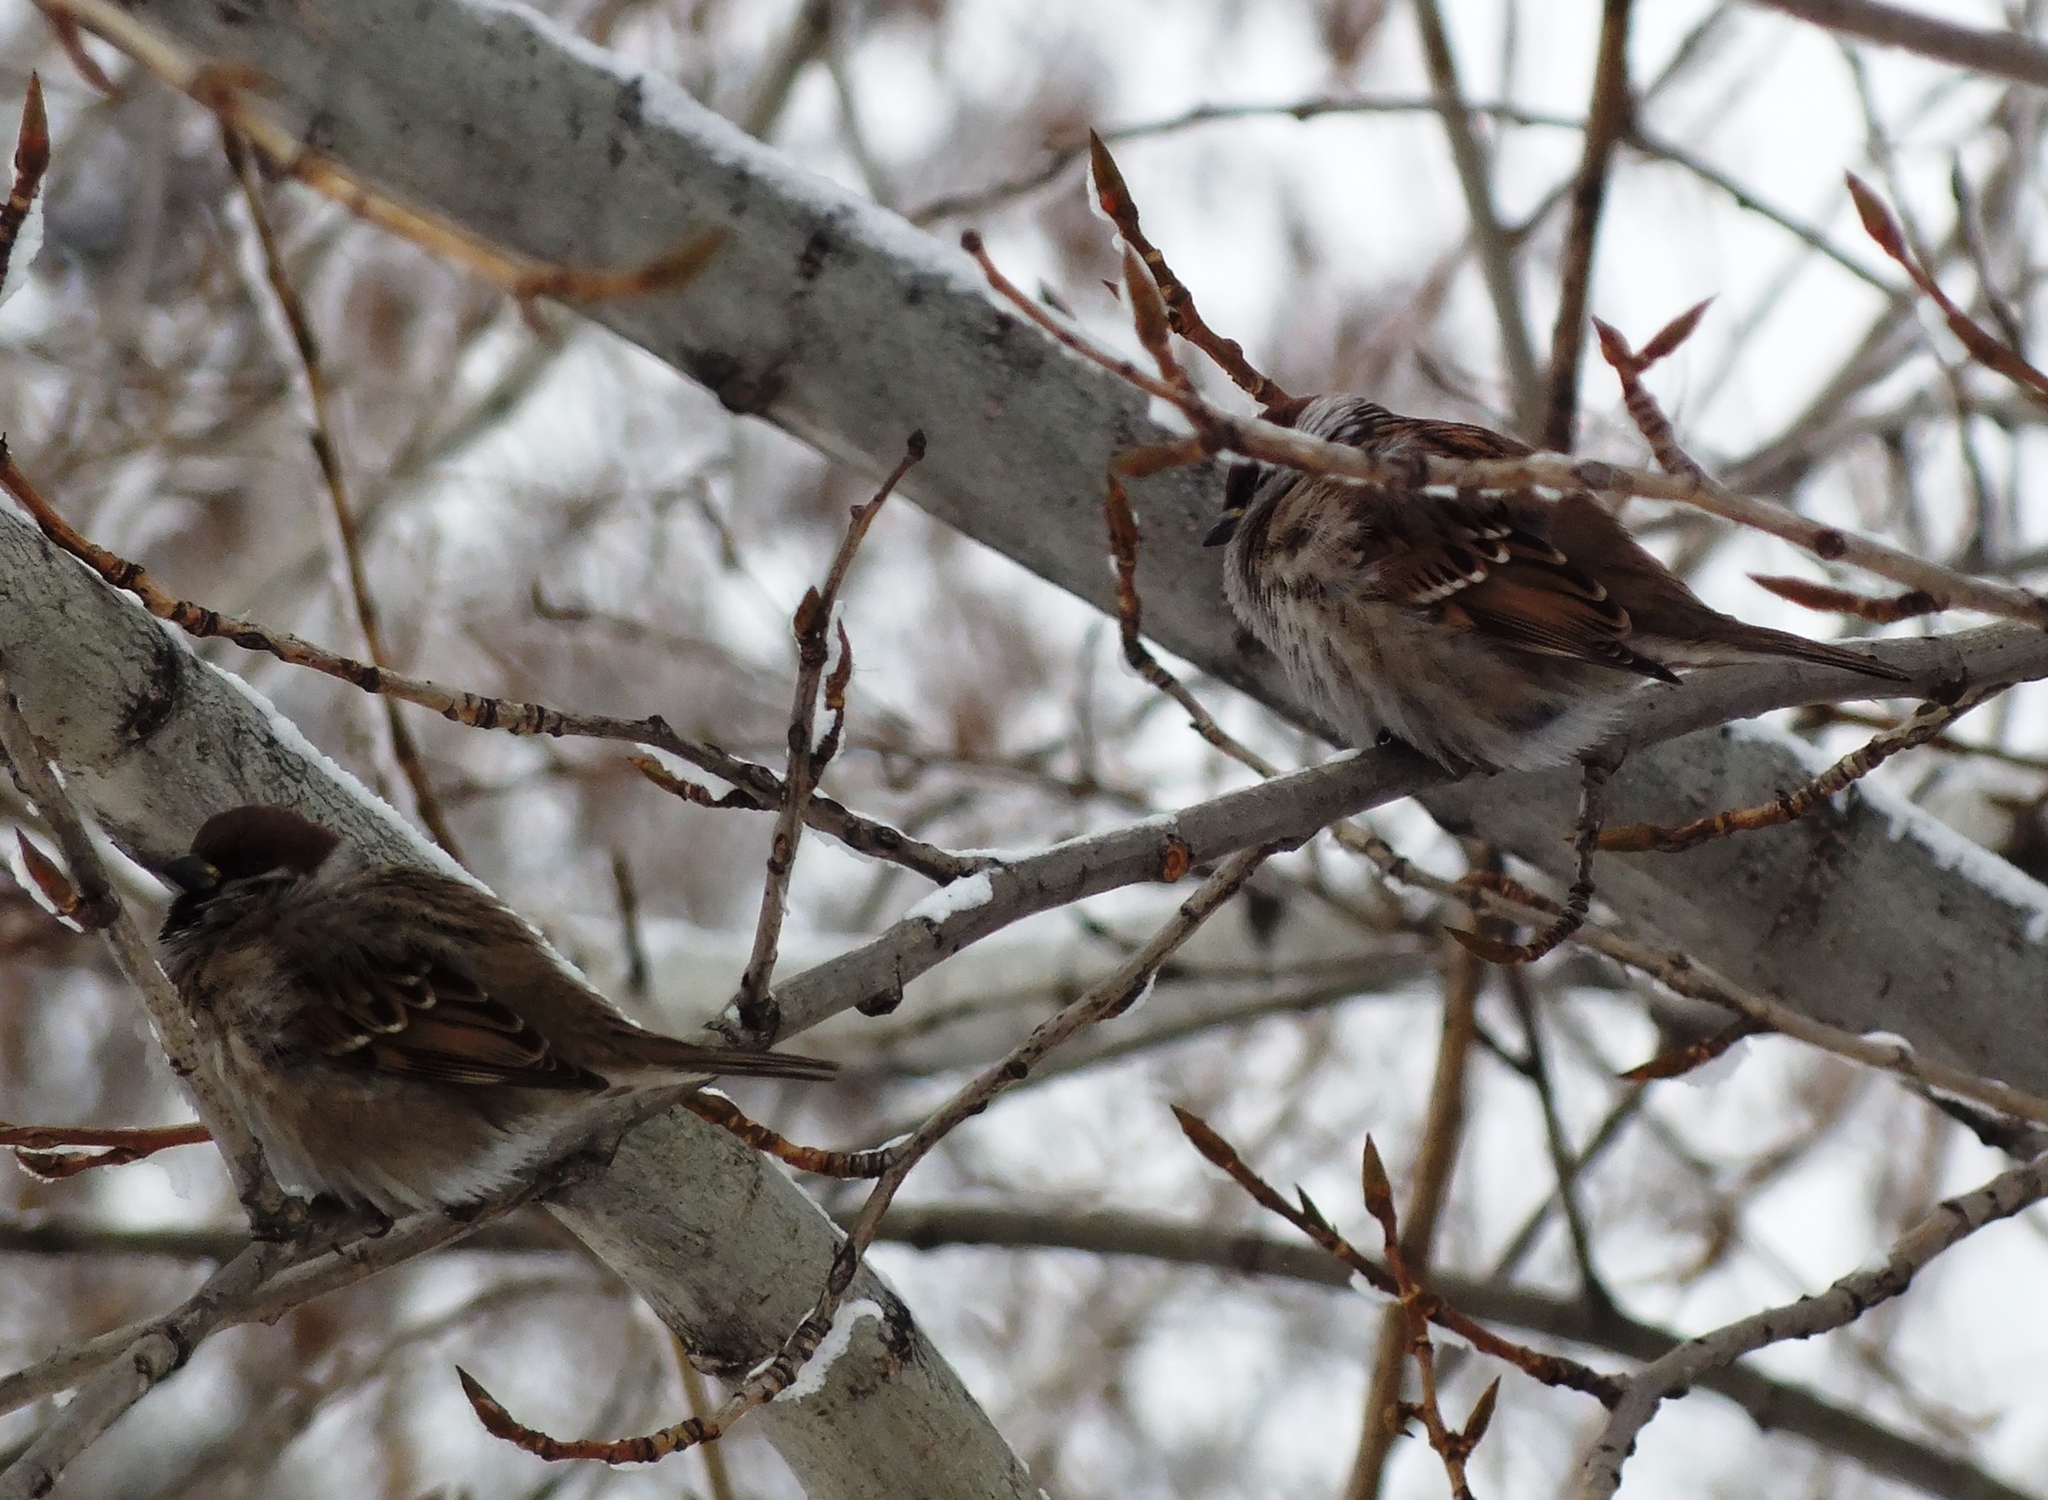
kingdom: Animalia
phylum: Chordata
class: Aves
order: Passeriformes
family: Passeridae
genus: Passer
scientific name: Passer montanus
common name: Eurasian tree sparrow
